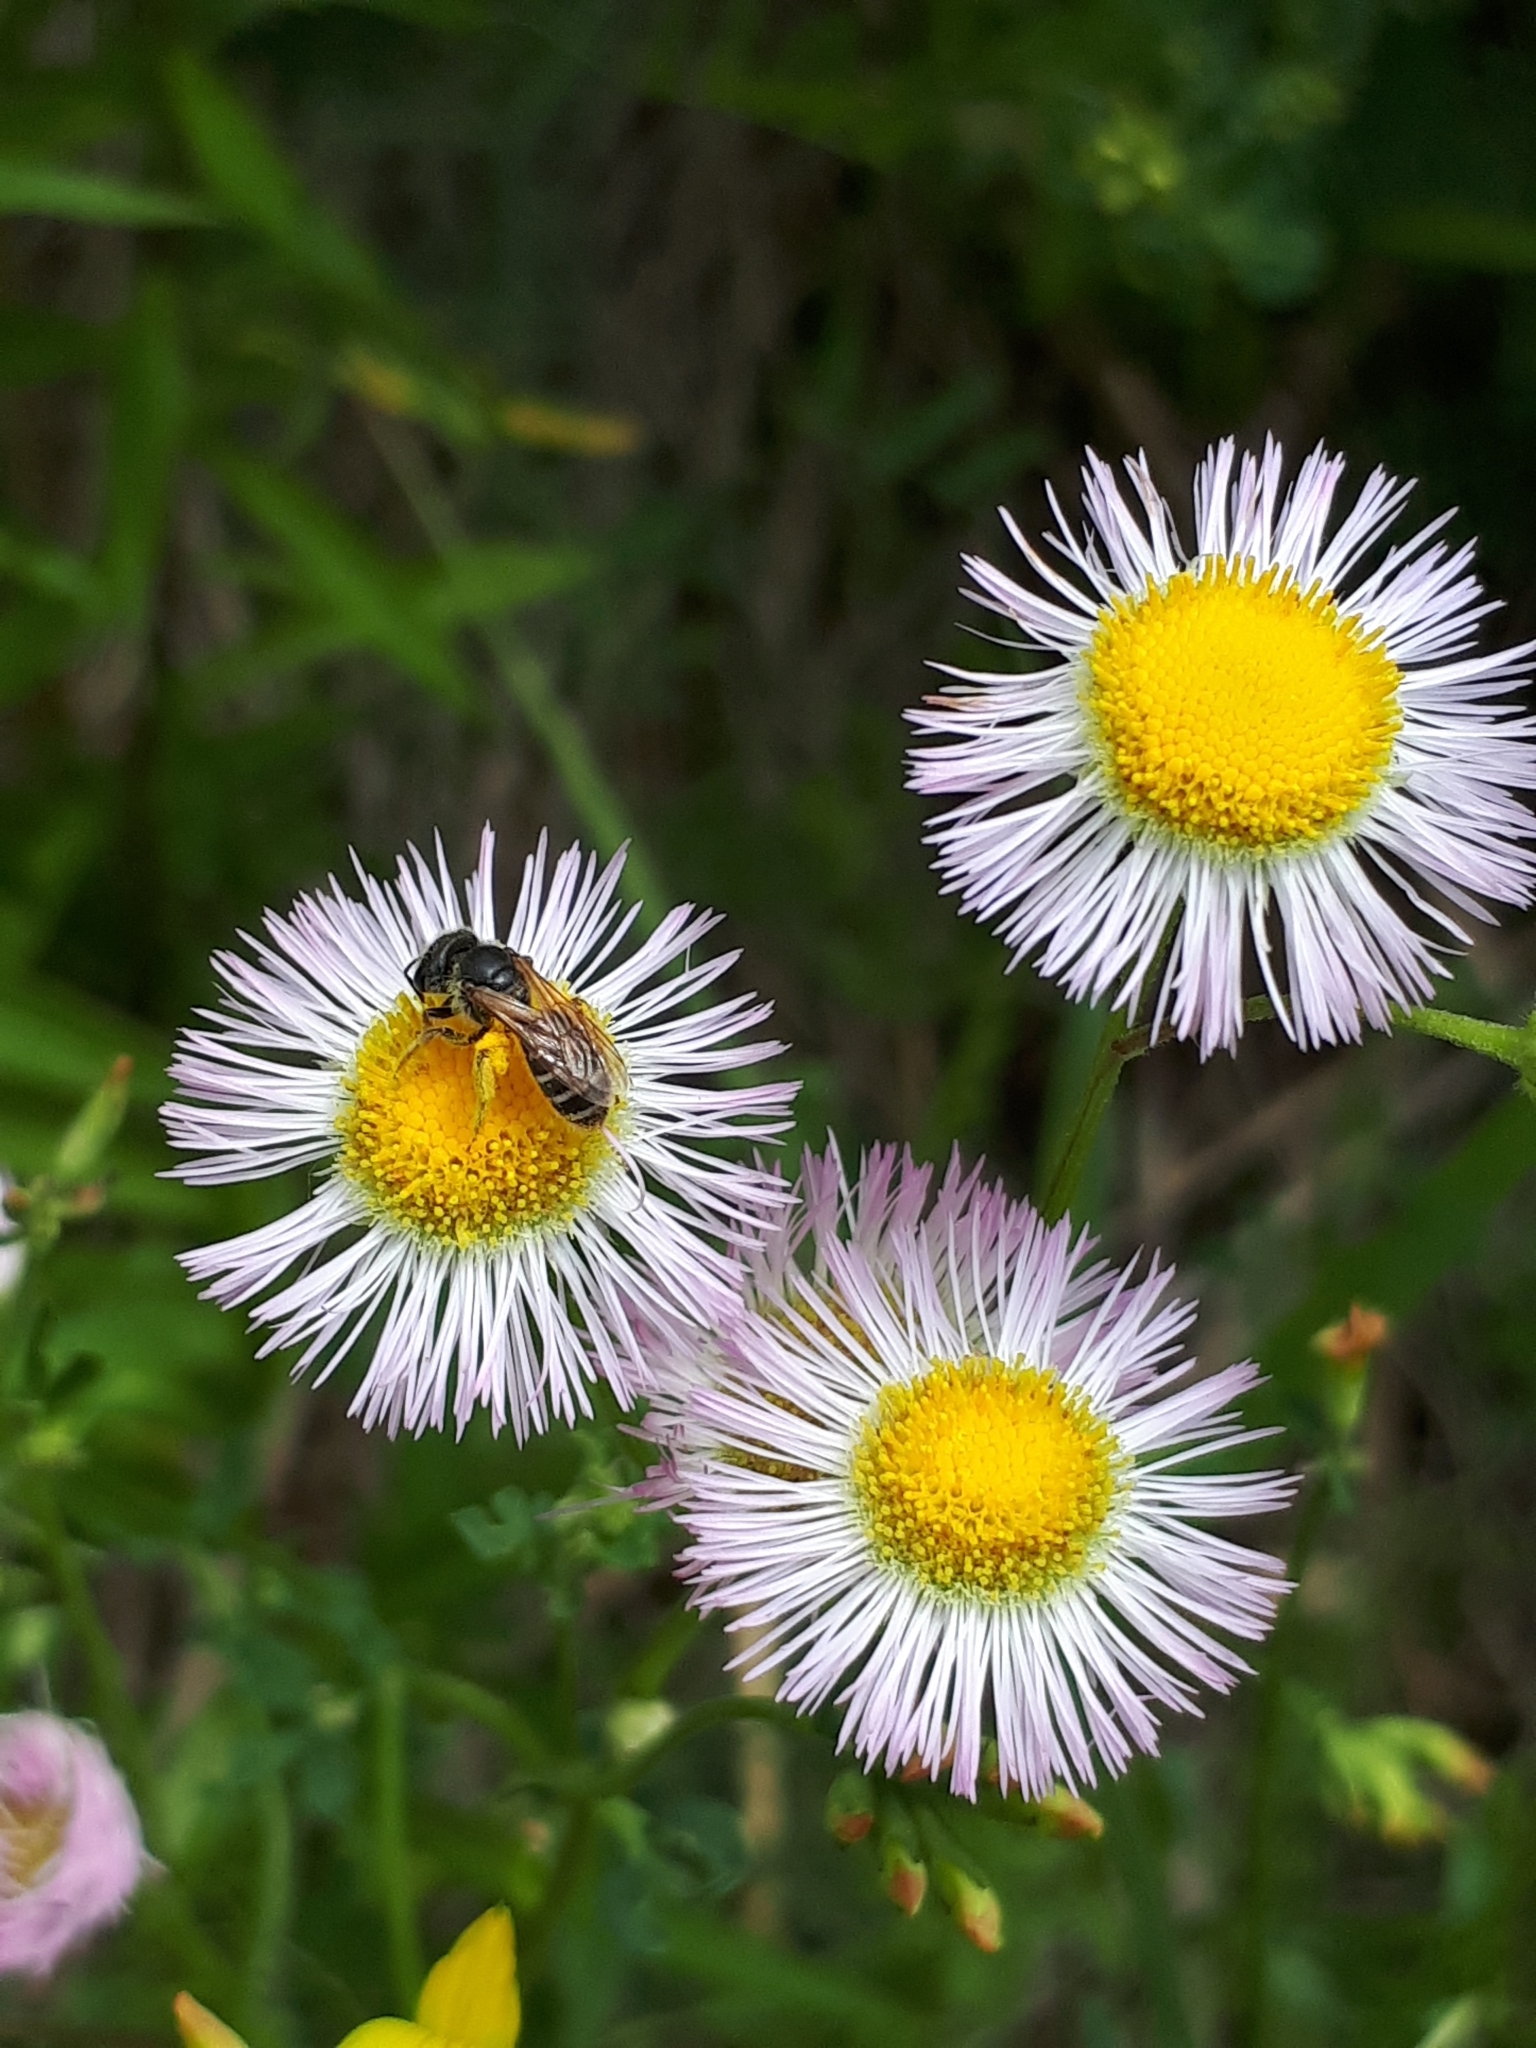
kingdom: Animalia
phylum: Arthropoda
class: Insecta
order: Hymenoptera
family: Halictidae
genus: Halictus
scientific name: Halictus ligatus
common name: Ligated furrow bee
